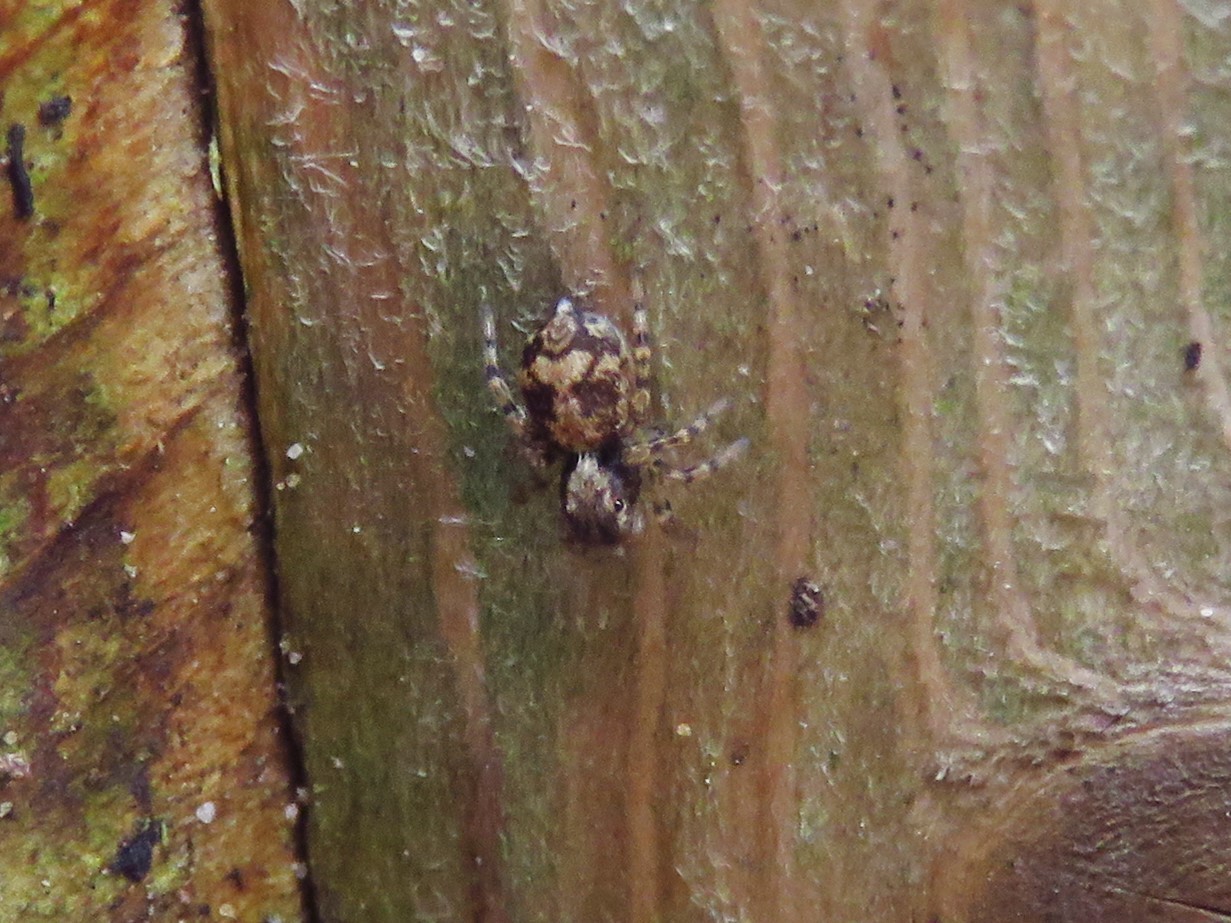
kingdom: Animalia
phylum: Arthropoda
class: Arachnida
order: Araneae
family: Salticidae
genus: Naphrys
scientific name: Naphrys pulex
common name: Flea jumping spider
